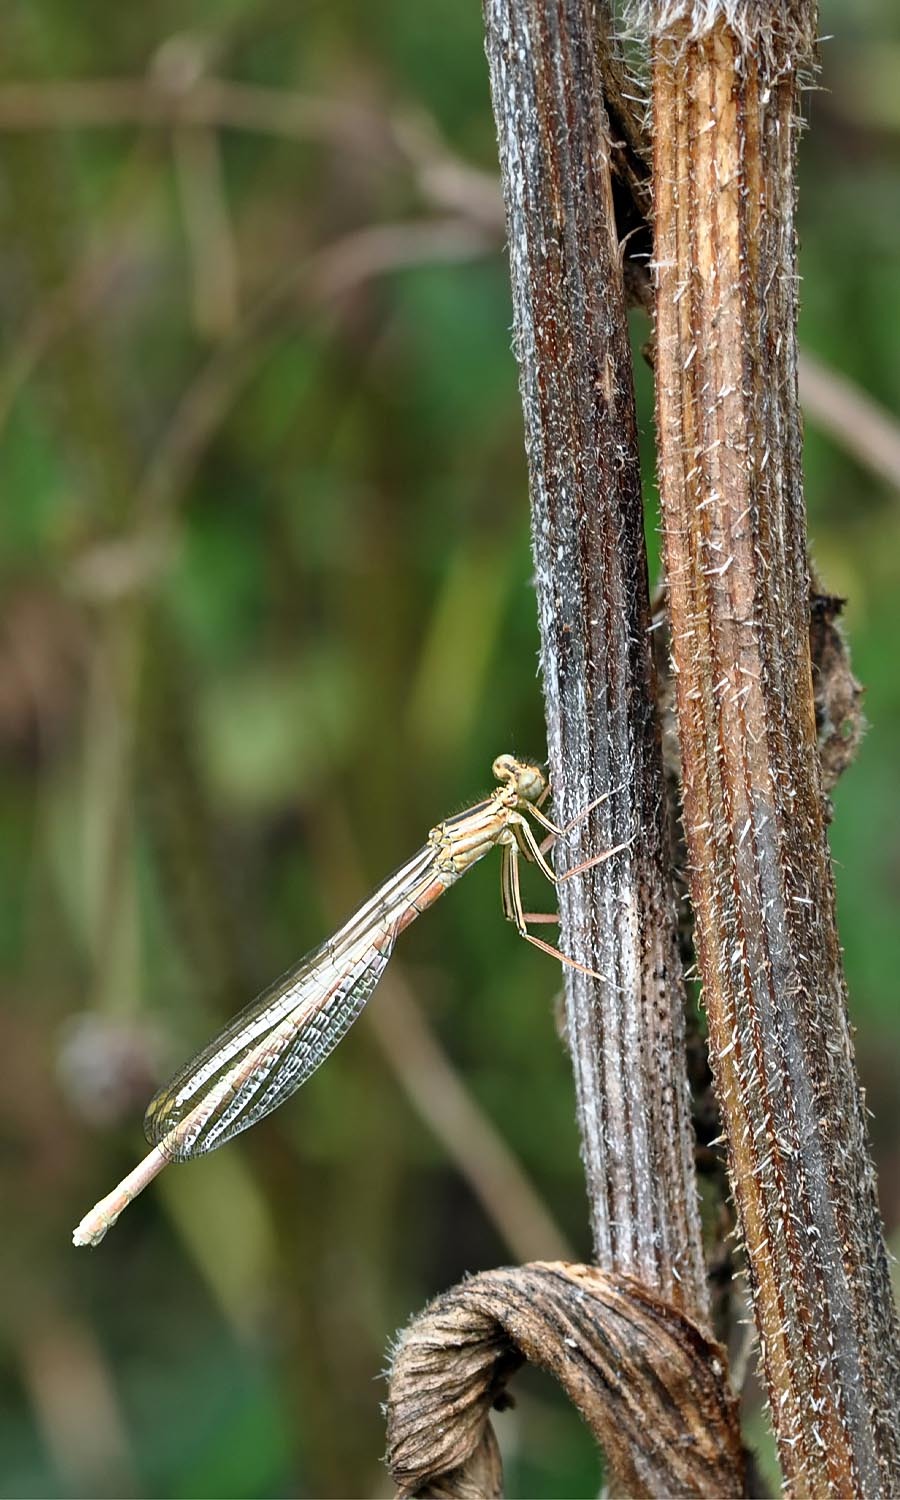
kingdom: Animalia
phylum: Arthropoda
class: Insecta
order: Odonata
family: Platycnemididae
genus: Platycnemis
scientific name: Platycnemis pennipes
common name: White-legged damselfly
